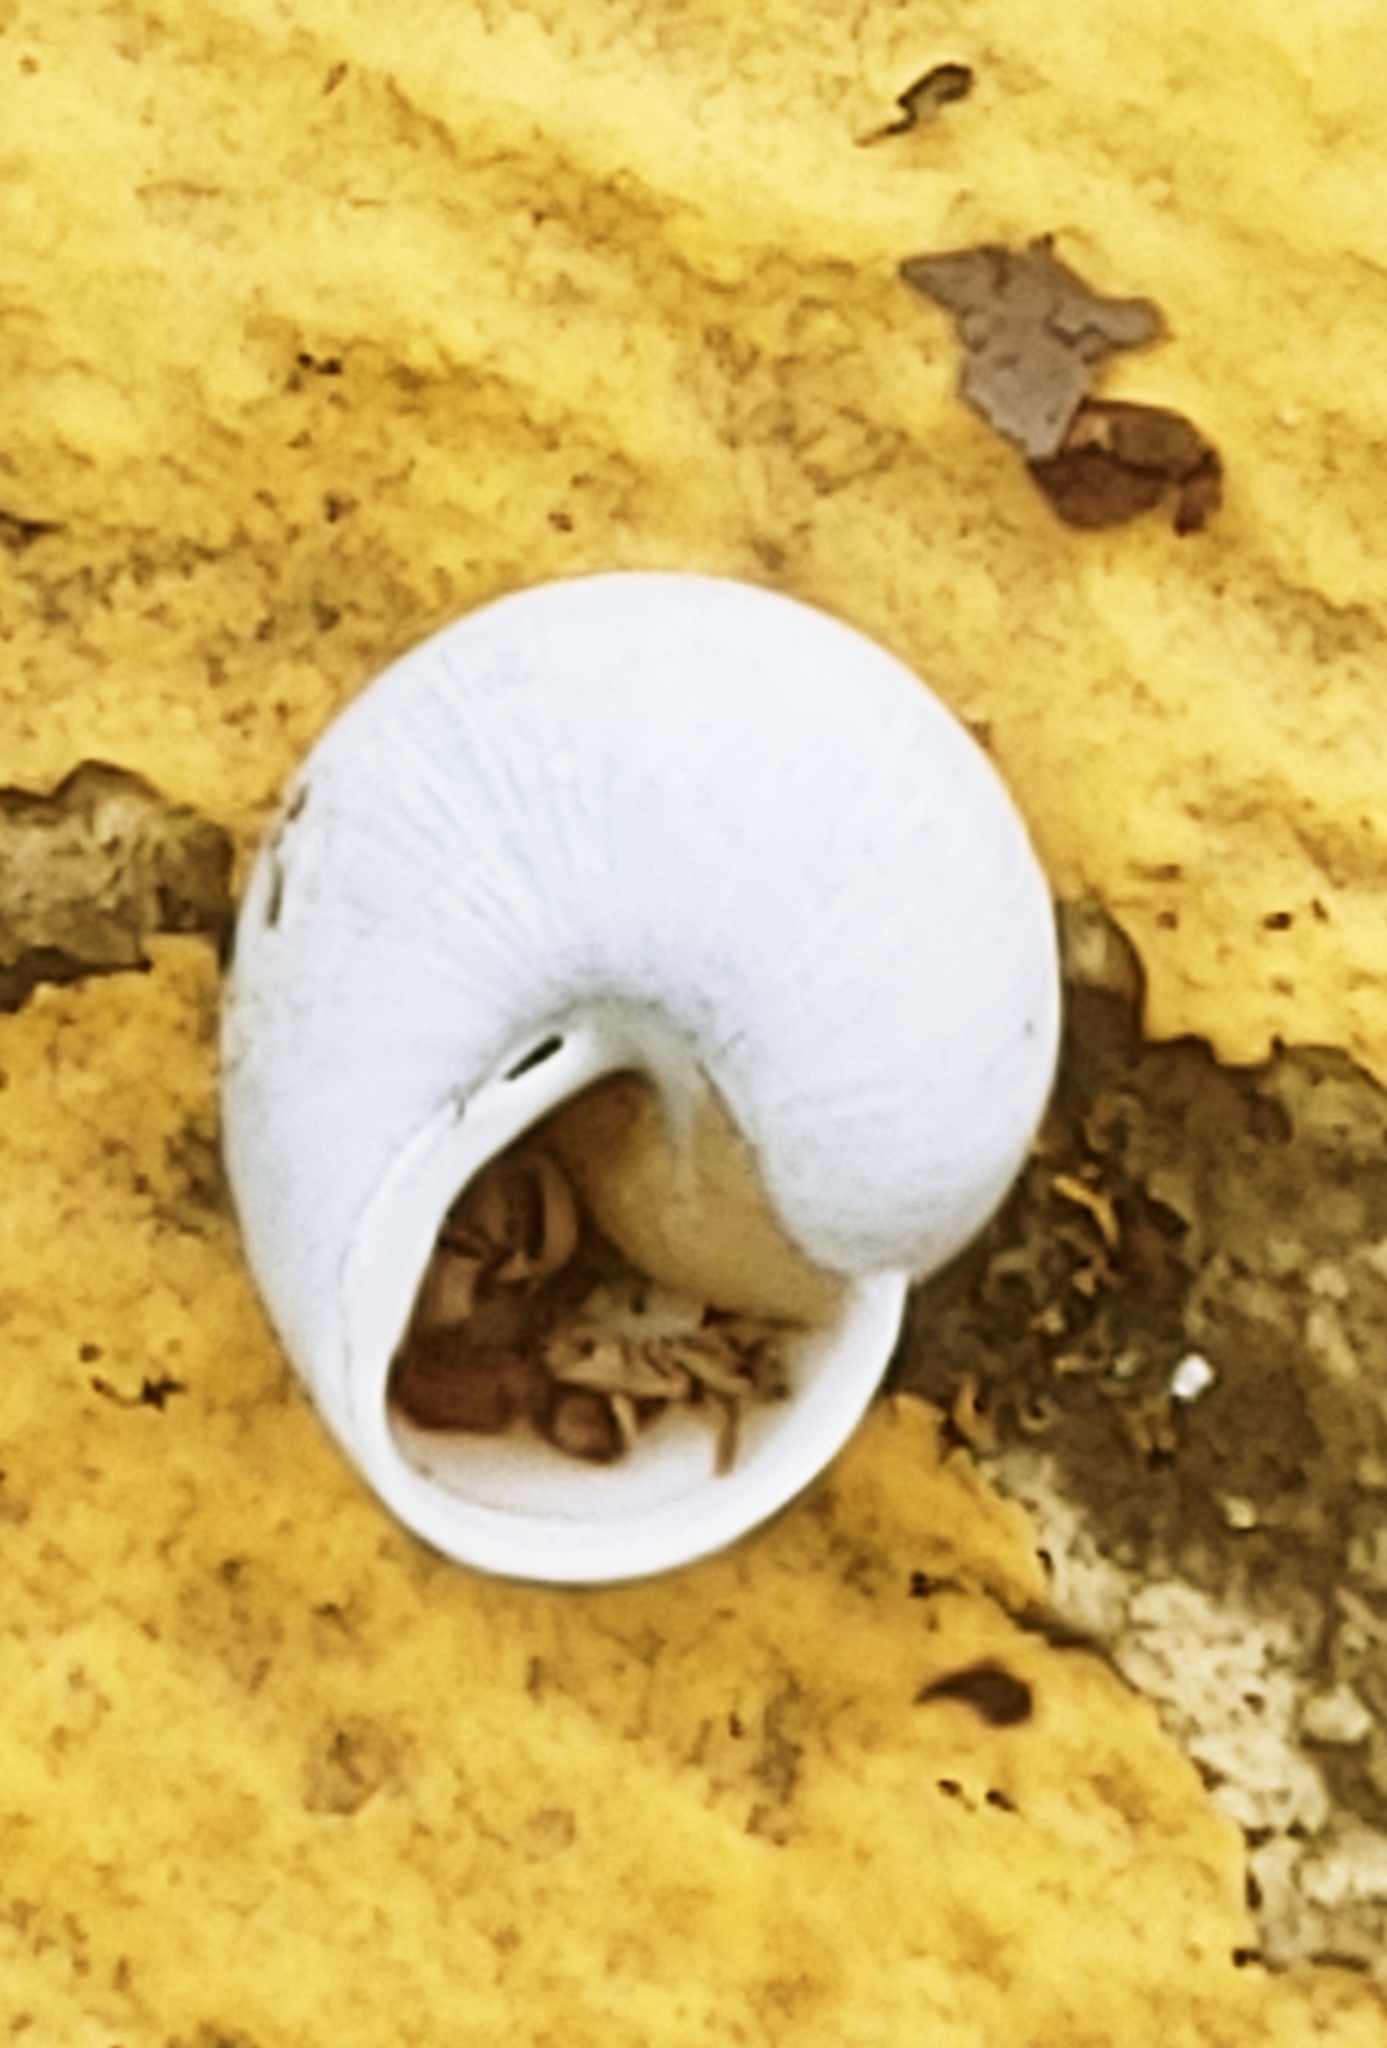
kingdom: Animalia
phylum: Mollusca
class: Gastropoda
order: Stylommatophora
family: Zachrysiidae
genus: Zachrysia
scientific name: Zachrysia provisoria
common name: Garden zachrysia
